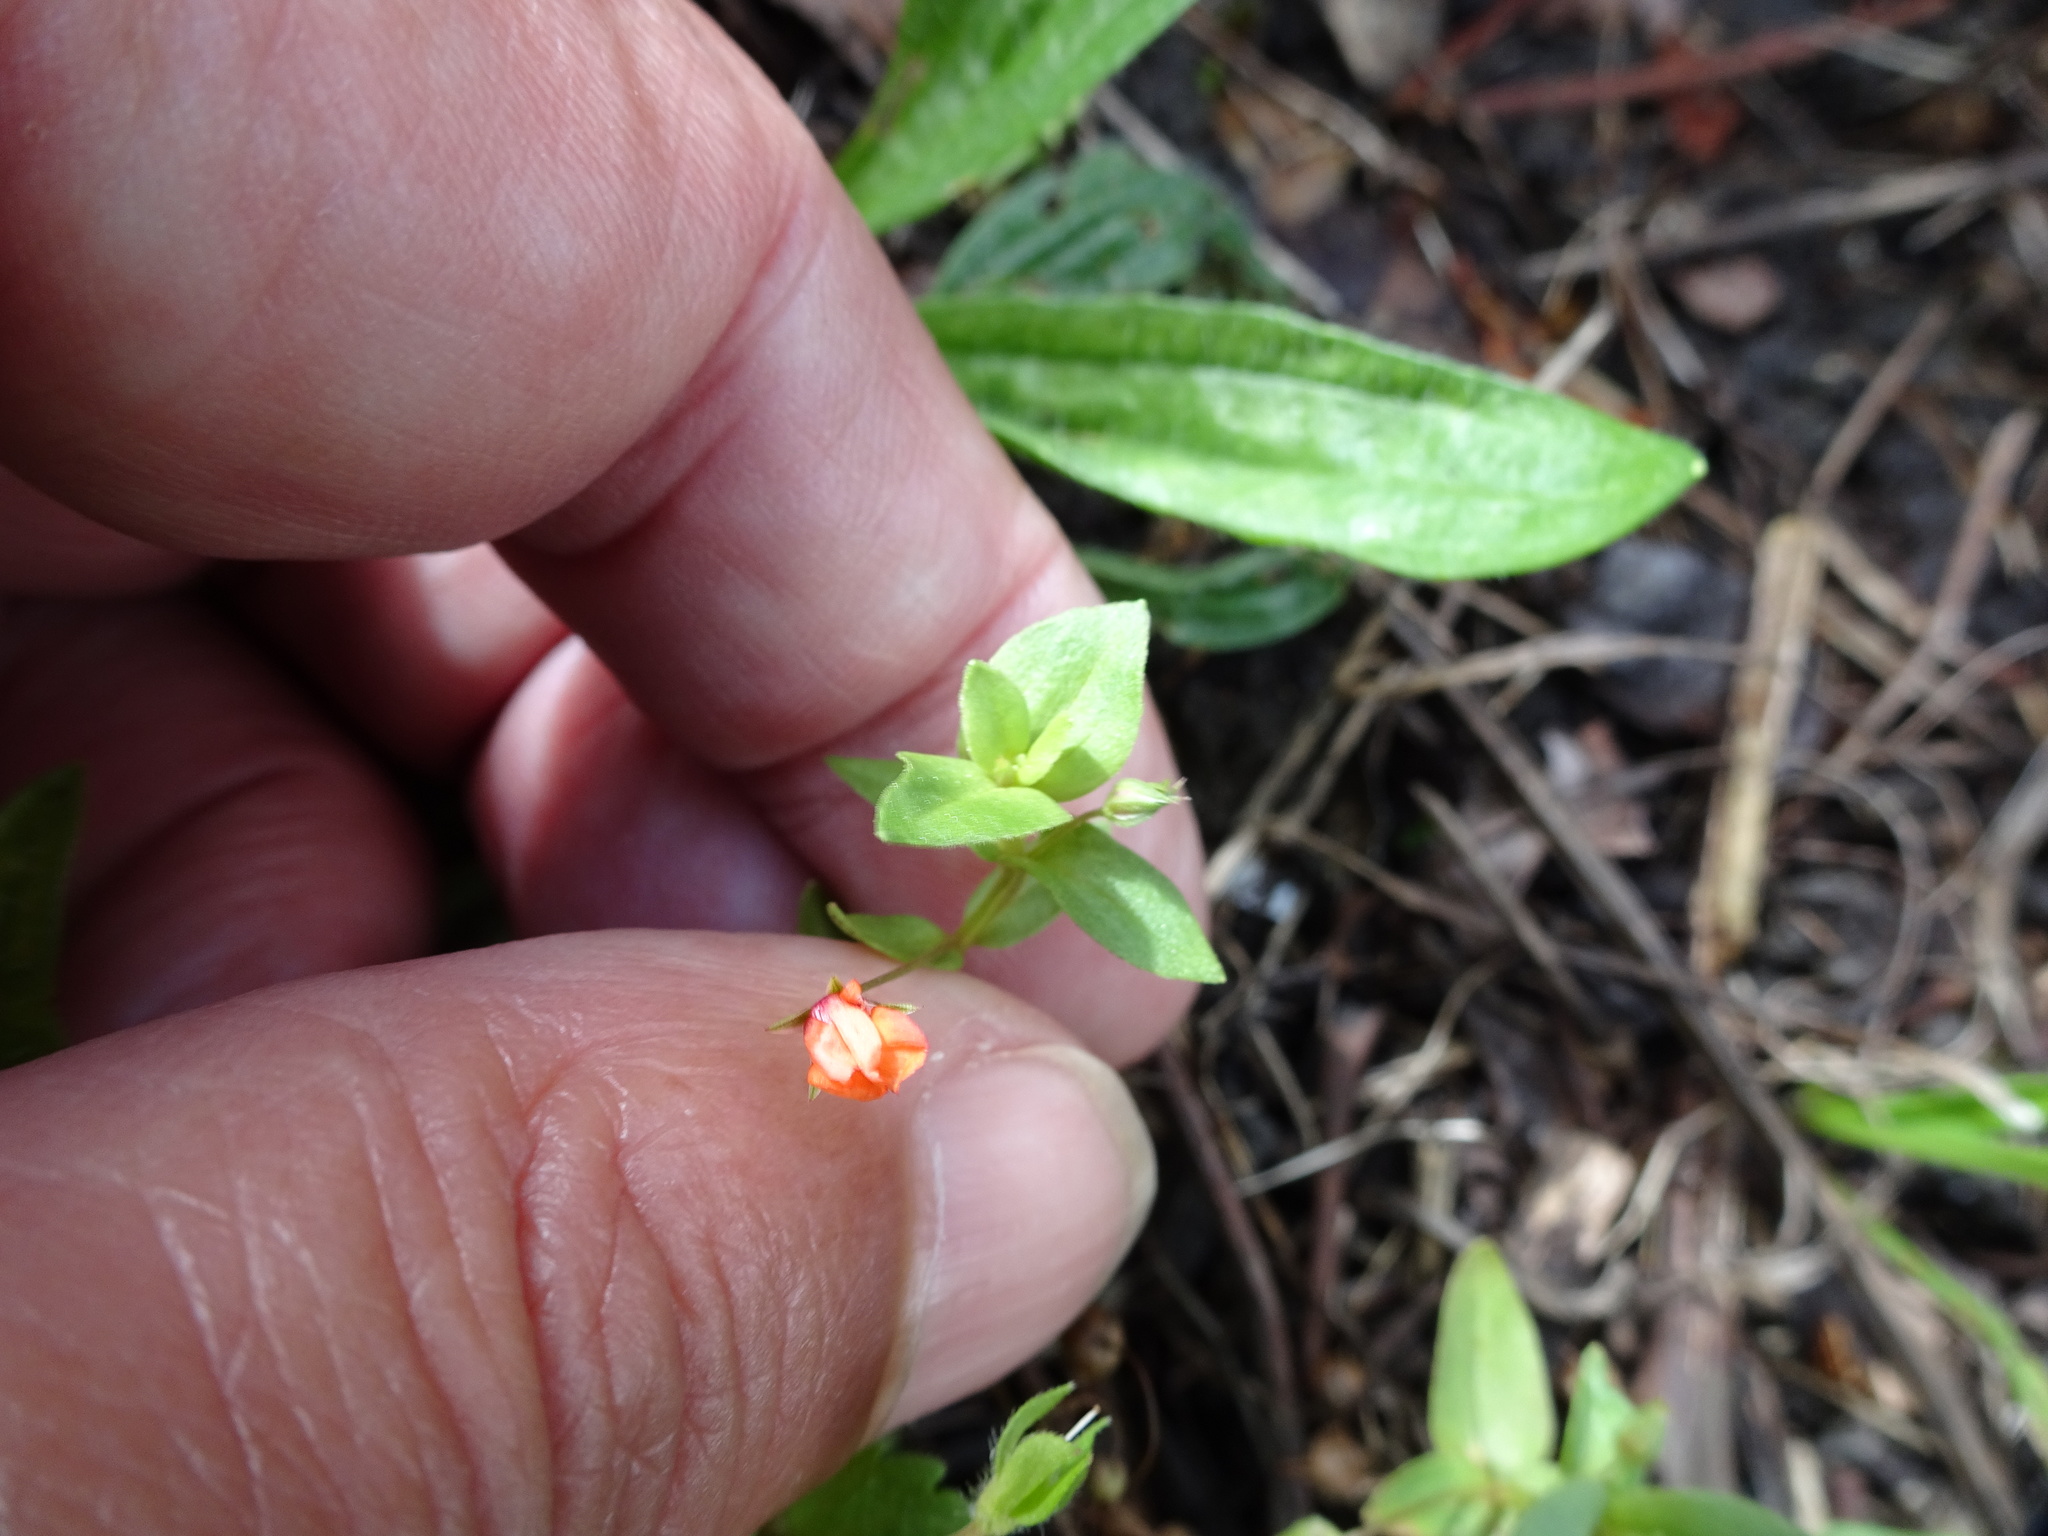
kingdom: Plantae
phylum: Tracheophyta
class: Magnoliopsida
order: Ericales
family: Primulaceae
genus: Lysimachia
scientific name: Lysimachia arvensis
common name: Scarlet pimpernel
